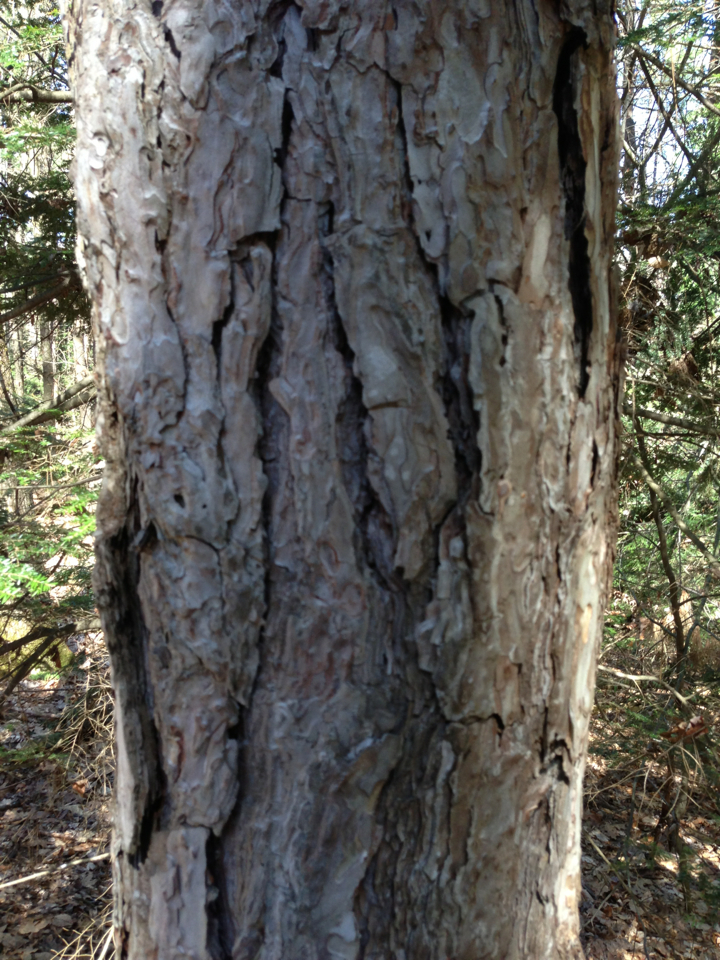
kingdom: Plantae
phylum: Tracheophyta
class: Pinopsida
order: Pinales
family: Pinaceae
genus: Pinus
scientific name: Pinus resinosa
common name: Norway pine
